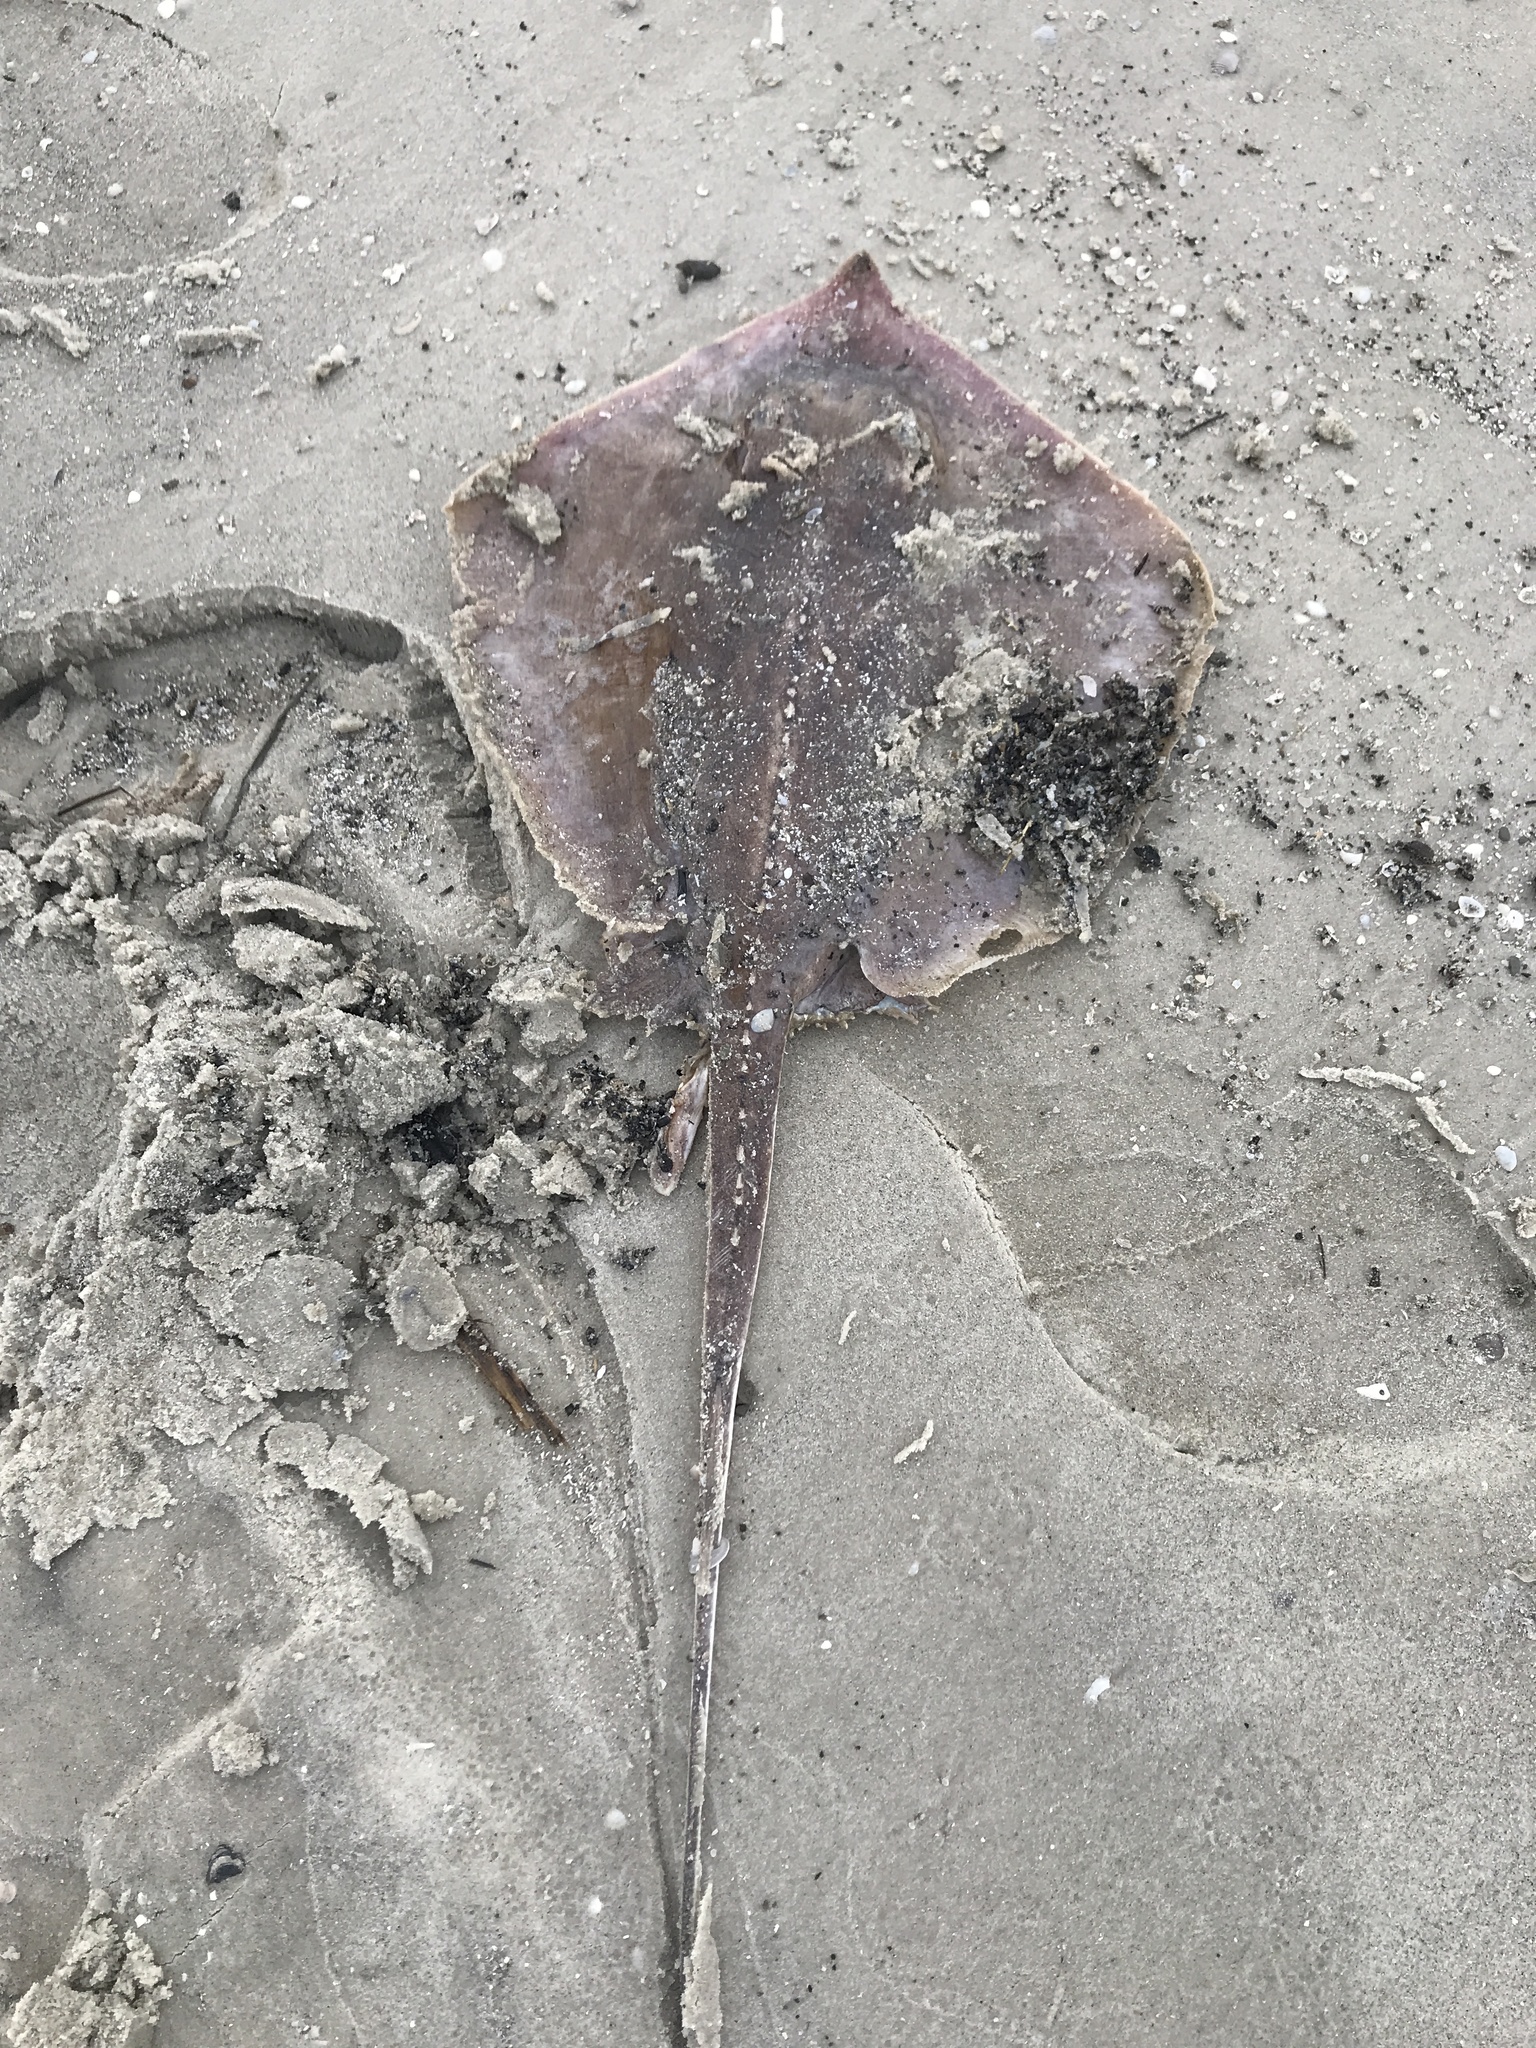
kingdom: Animalia
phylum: Chordata
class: Elasmobranchii
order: Myliobatiformes
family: Dasyatidae
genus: Hypanus
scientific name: Hypanus sabinus
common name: Atlantic stingray
